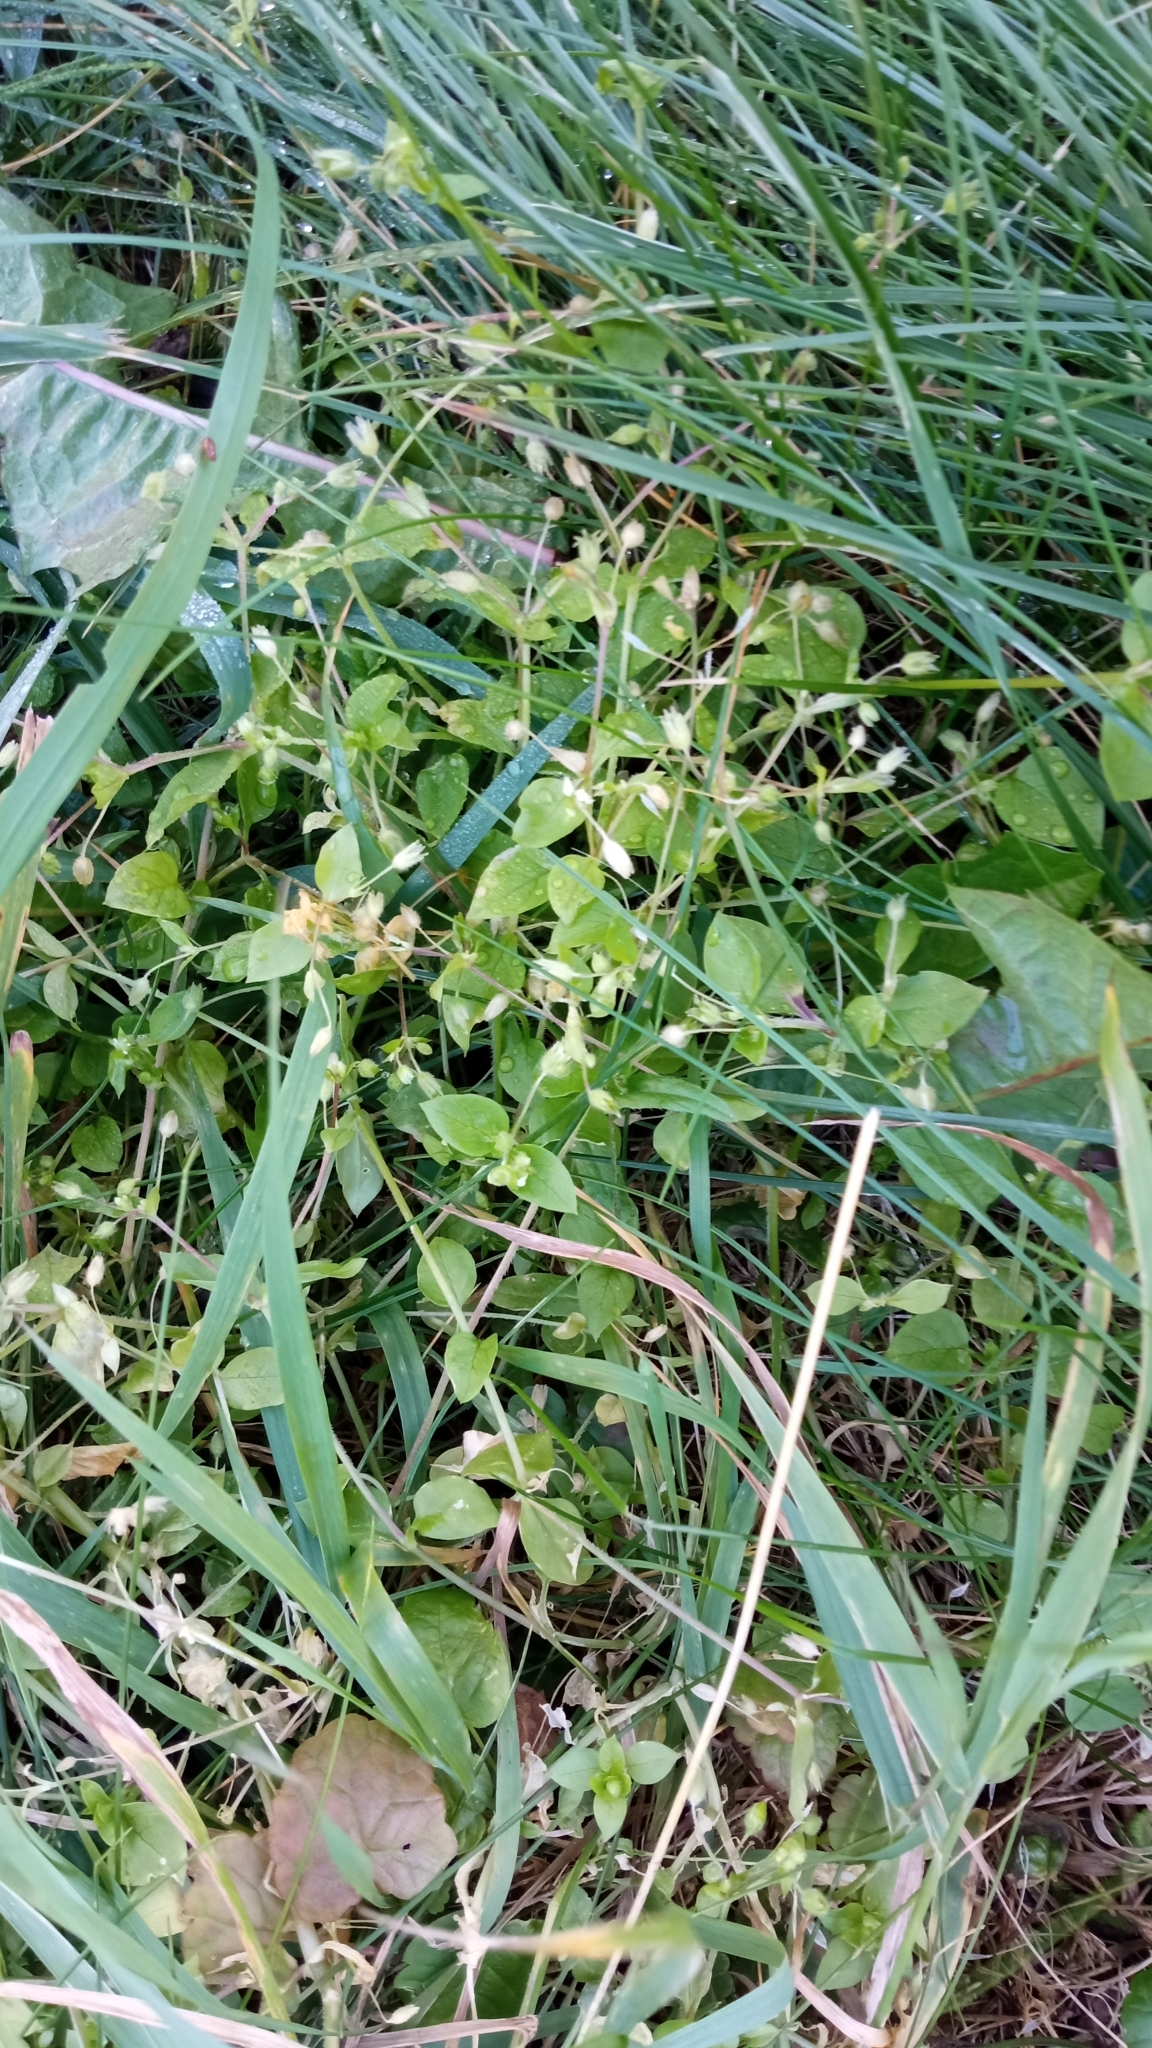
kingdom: Plantae
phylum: Tracheophyta
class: Magnoliopsida
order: Caryophyllales
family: Caryophyllaceae
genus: Stellaria
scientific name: Stellaria media
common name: Common chickweed
